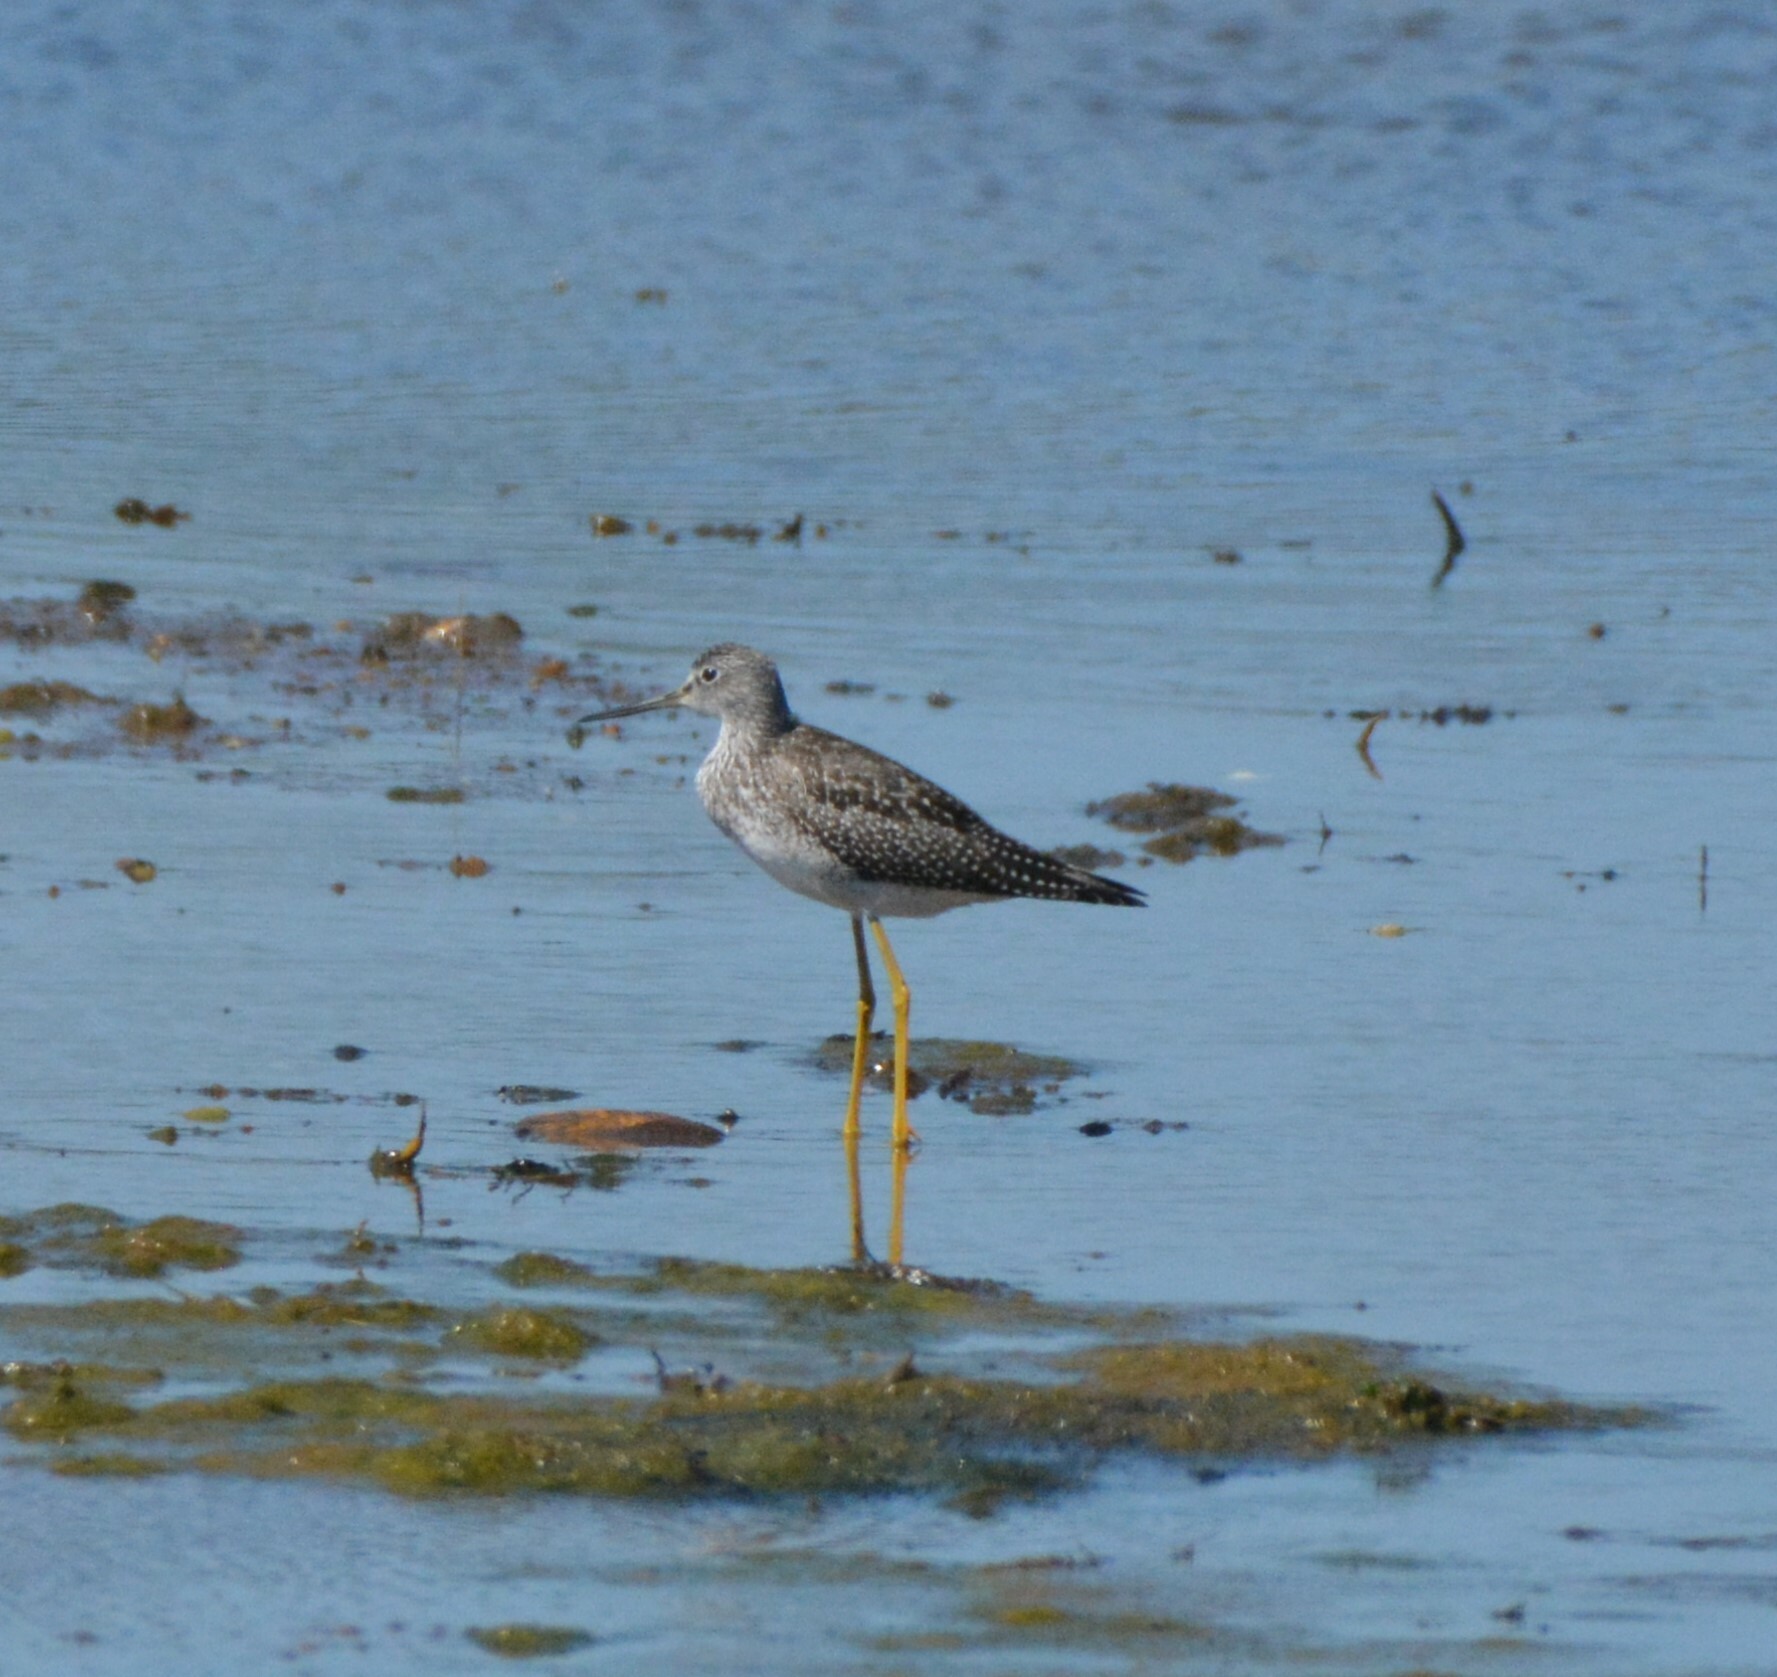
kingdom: Animalia
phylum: Chordata
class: Aves
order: Charadriiformes
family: Scolopacidae
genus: Tringa
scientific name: Tringa melanoleuca
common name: Greater yellowlegs
